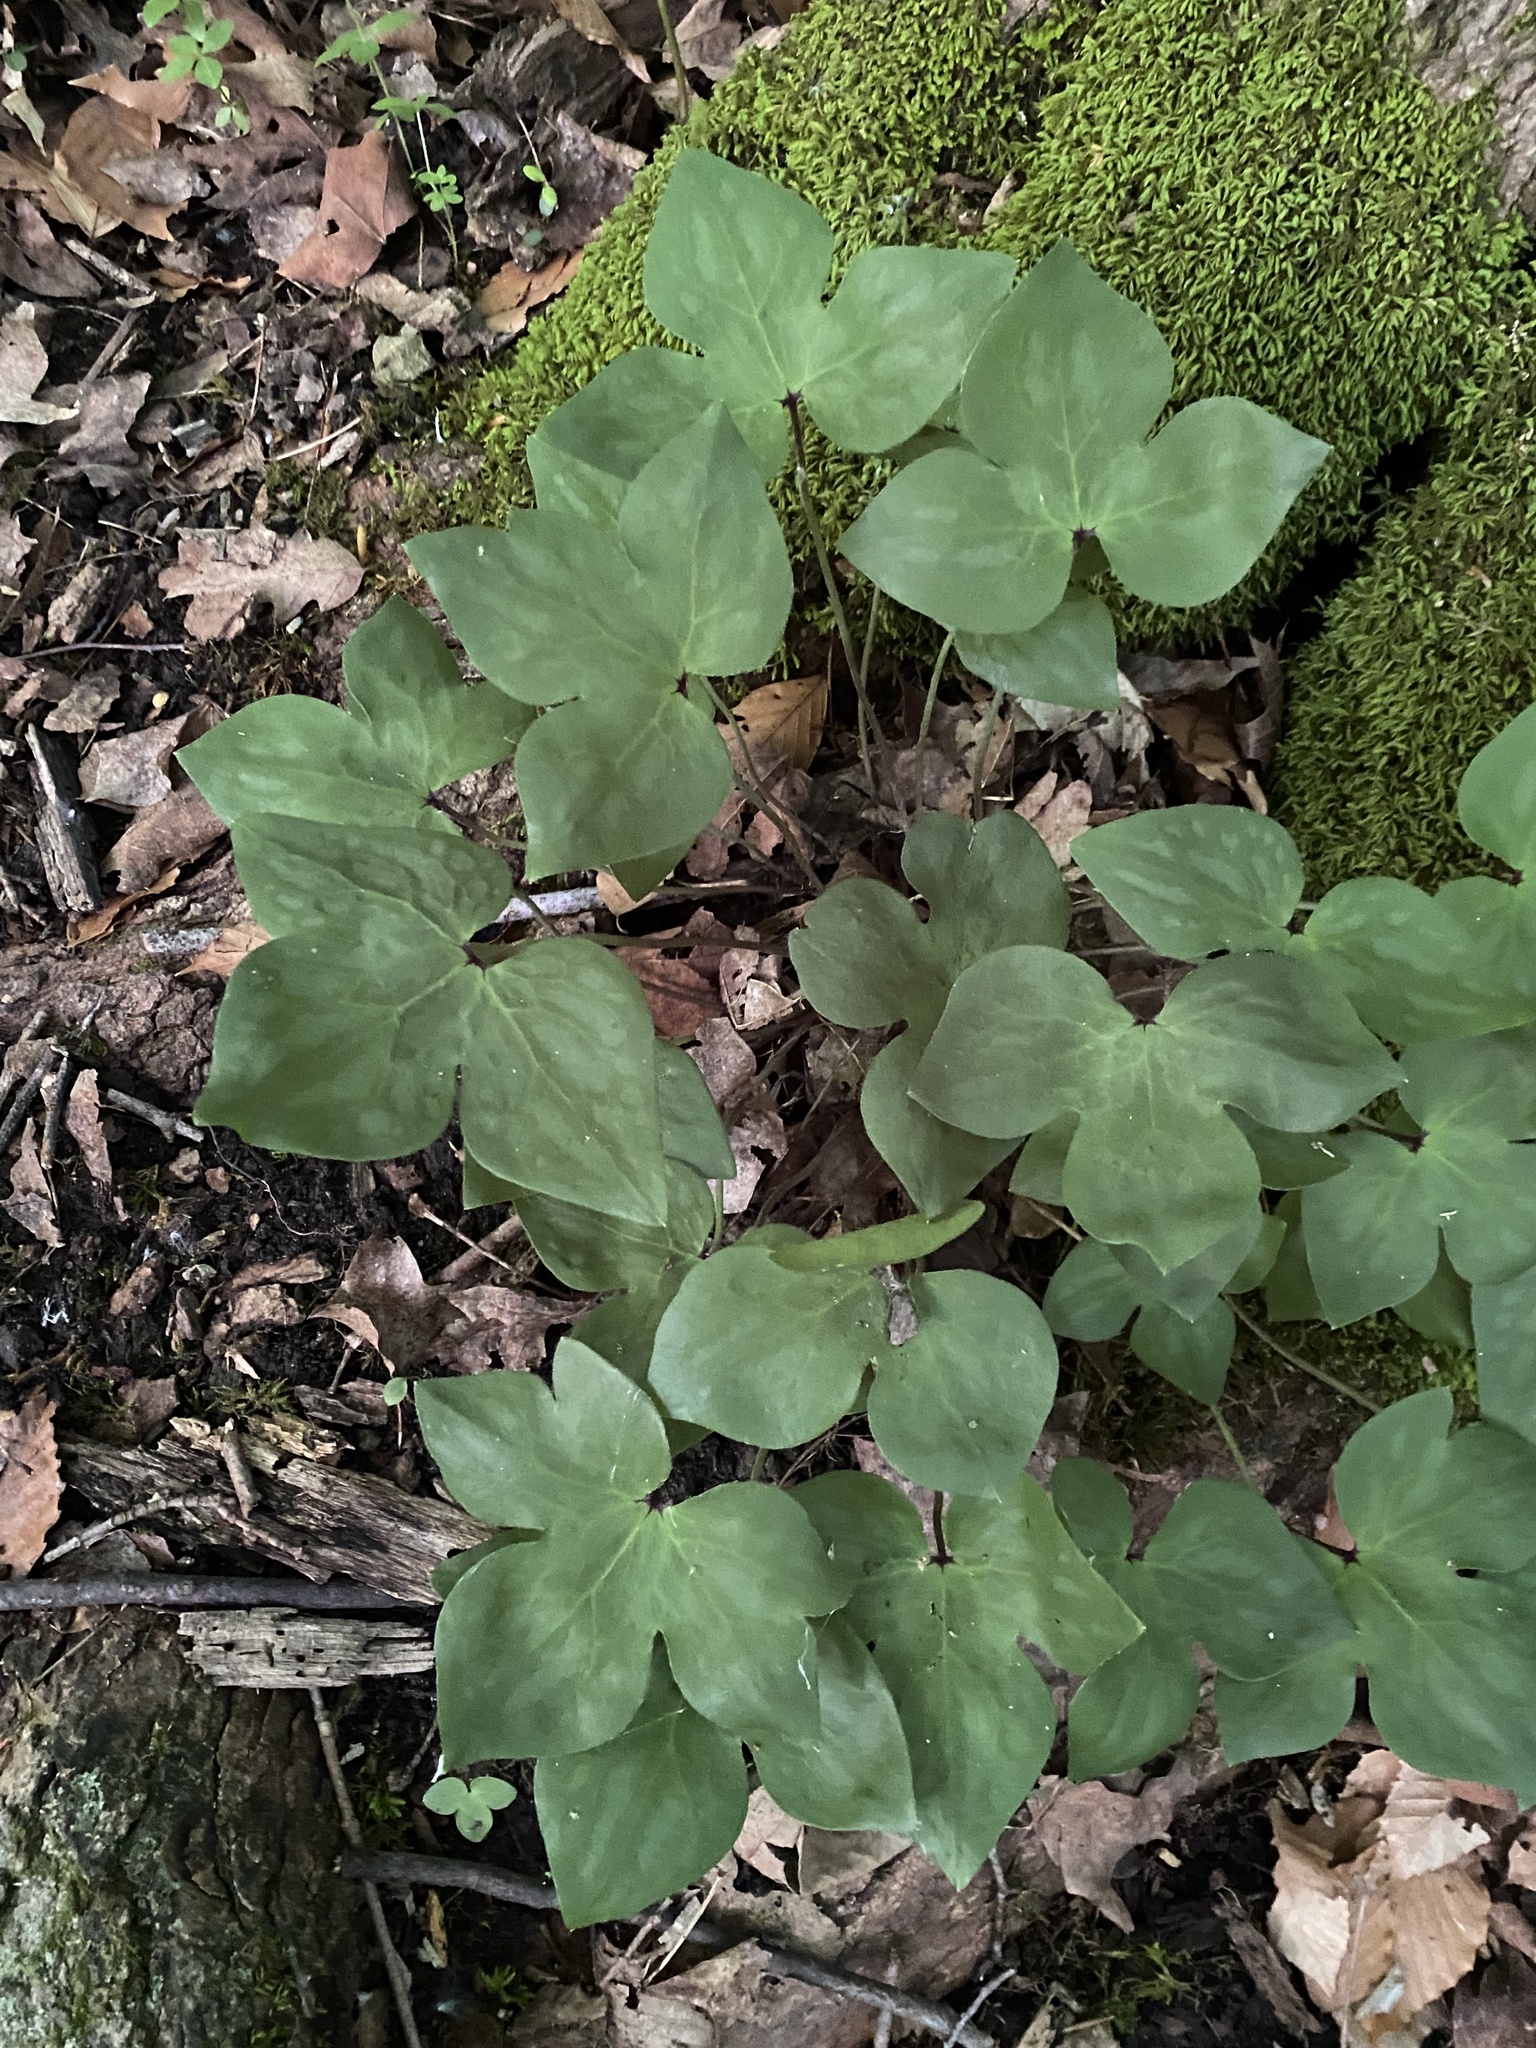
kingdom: Plantae
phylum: Tracheophyta
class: Magnoliopsida
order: Ranunculales
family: Ranunculaceae
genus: Hepatica
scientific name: Hepatica acutiloba
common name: Sharp-lobed hepatica
